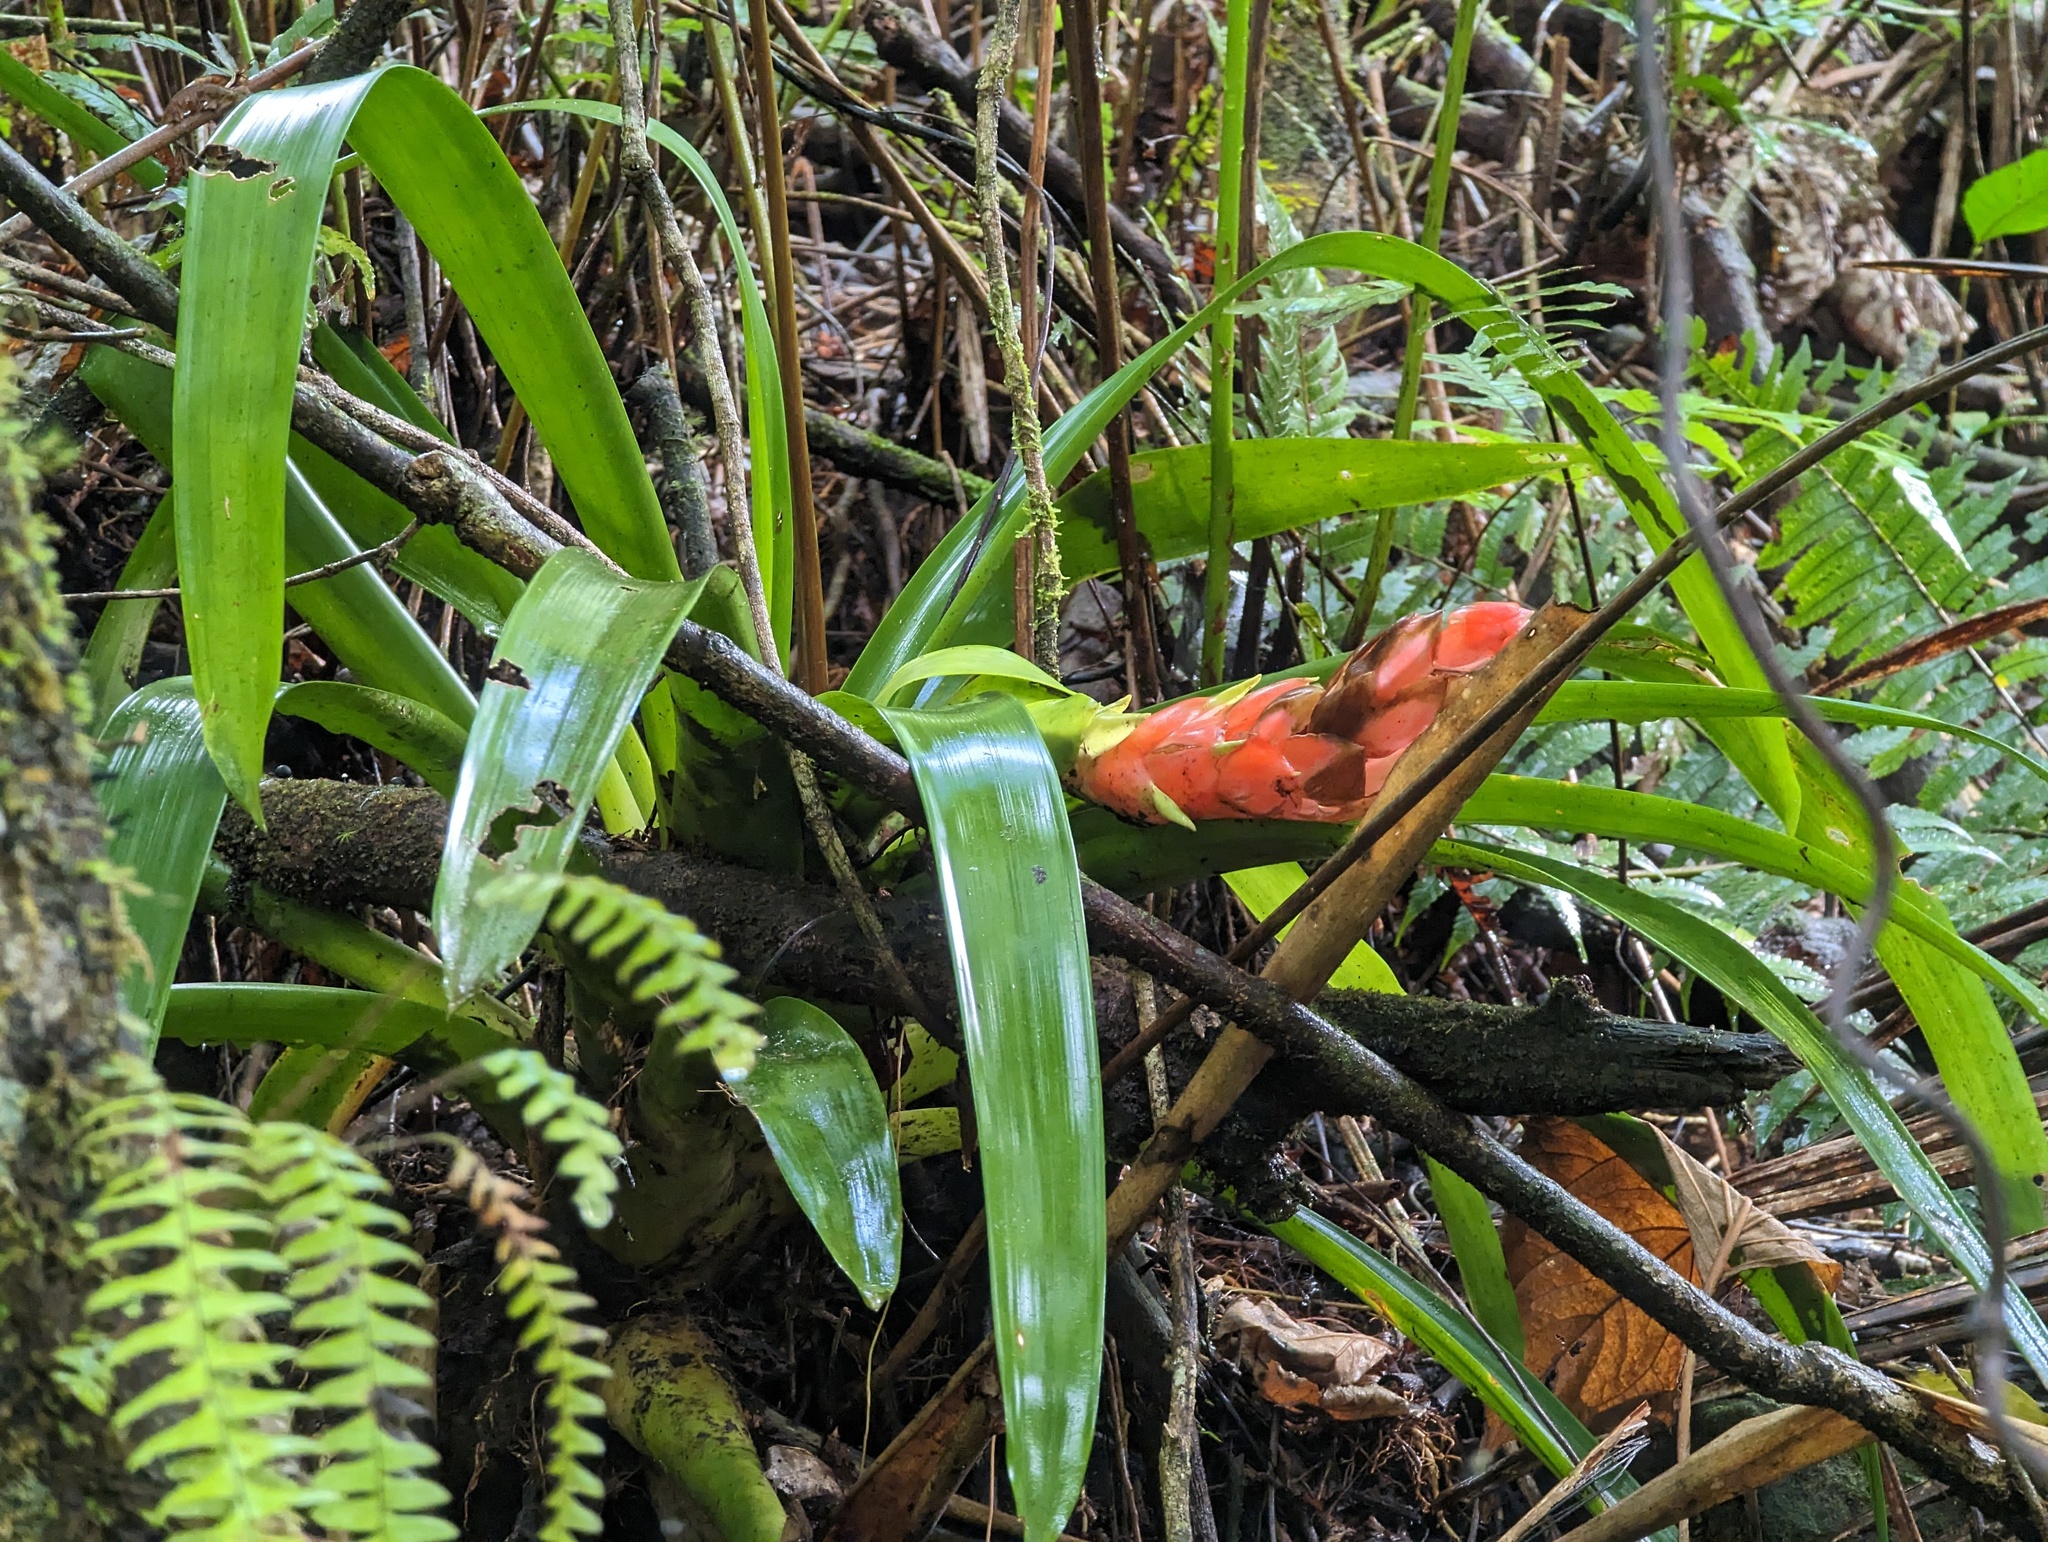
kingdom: Plantae
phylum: Tracheophyta
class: Liliopsida
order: Poales
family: Bromeliaceae
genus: Guzmania
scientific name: Guzmania berteroniana
